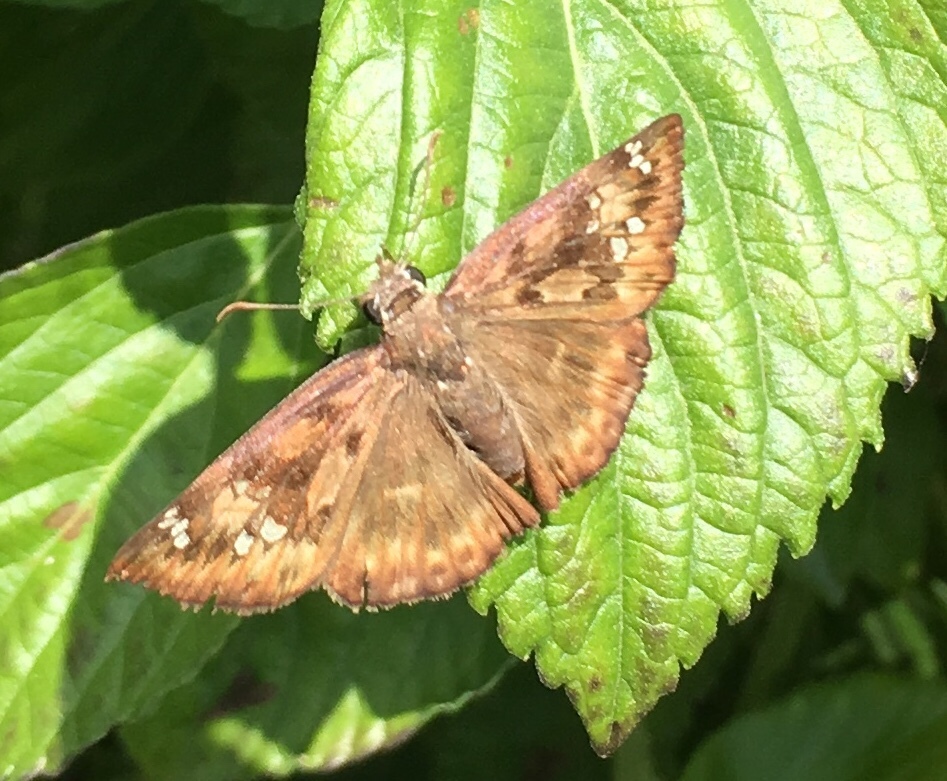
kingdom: Animalia
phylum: Arthropoda
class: Insecta
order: Lepidoptera
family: Hesperiidae
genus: Erynnis
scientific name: Erynnis horatius
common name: Horace's duskywing
